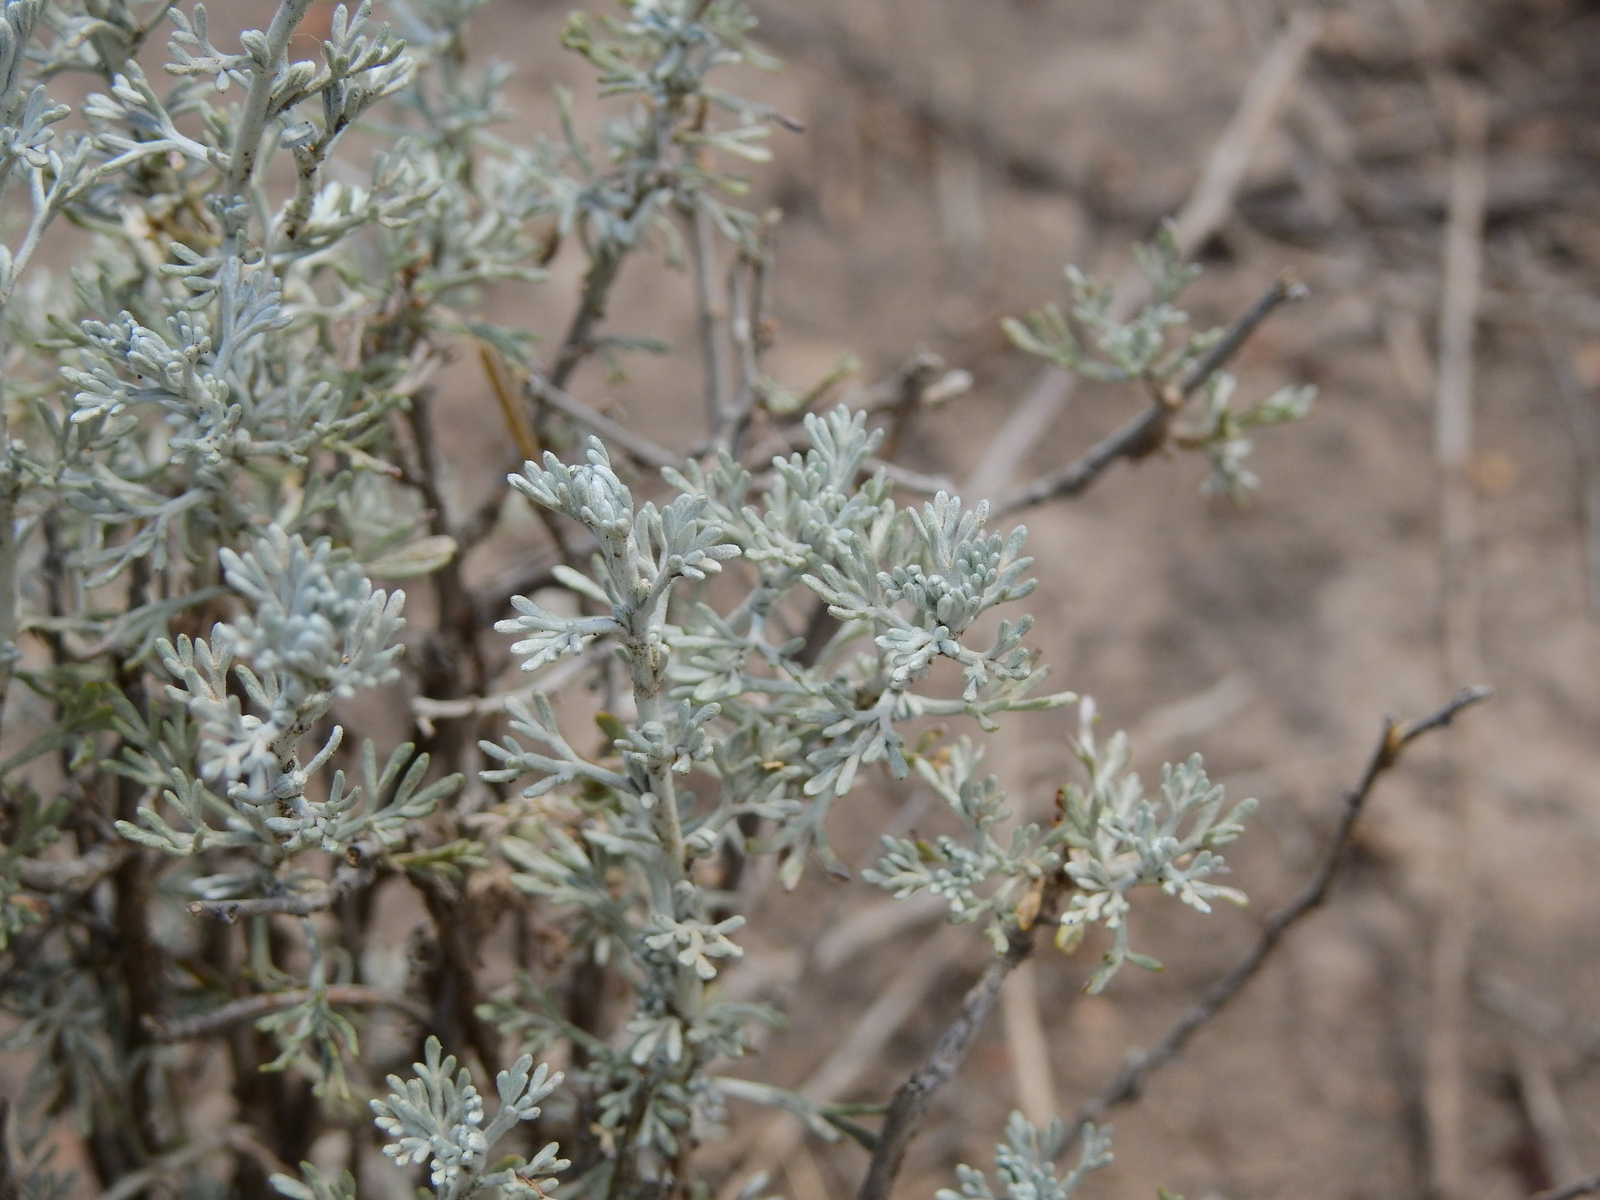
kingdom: Plantae
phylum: Tracheophyta
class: Magnoliopsida
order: Asterales
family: Asteraceae
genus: Artemisia
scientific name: Artemisia mendozana
